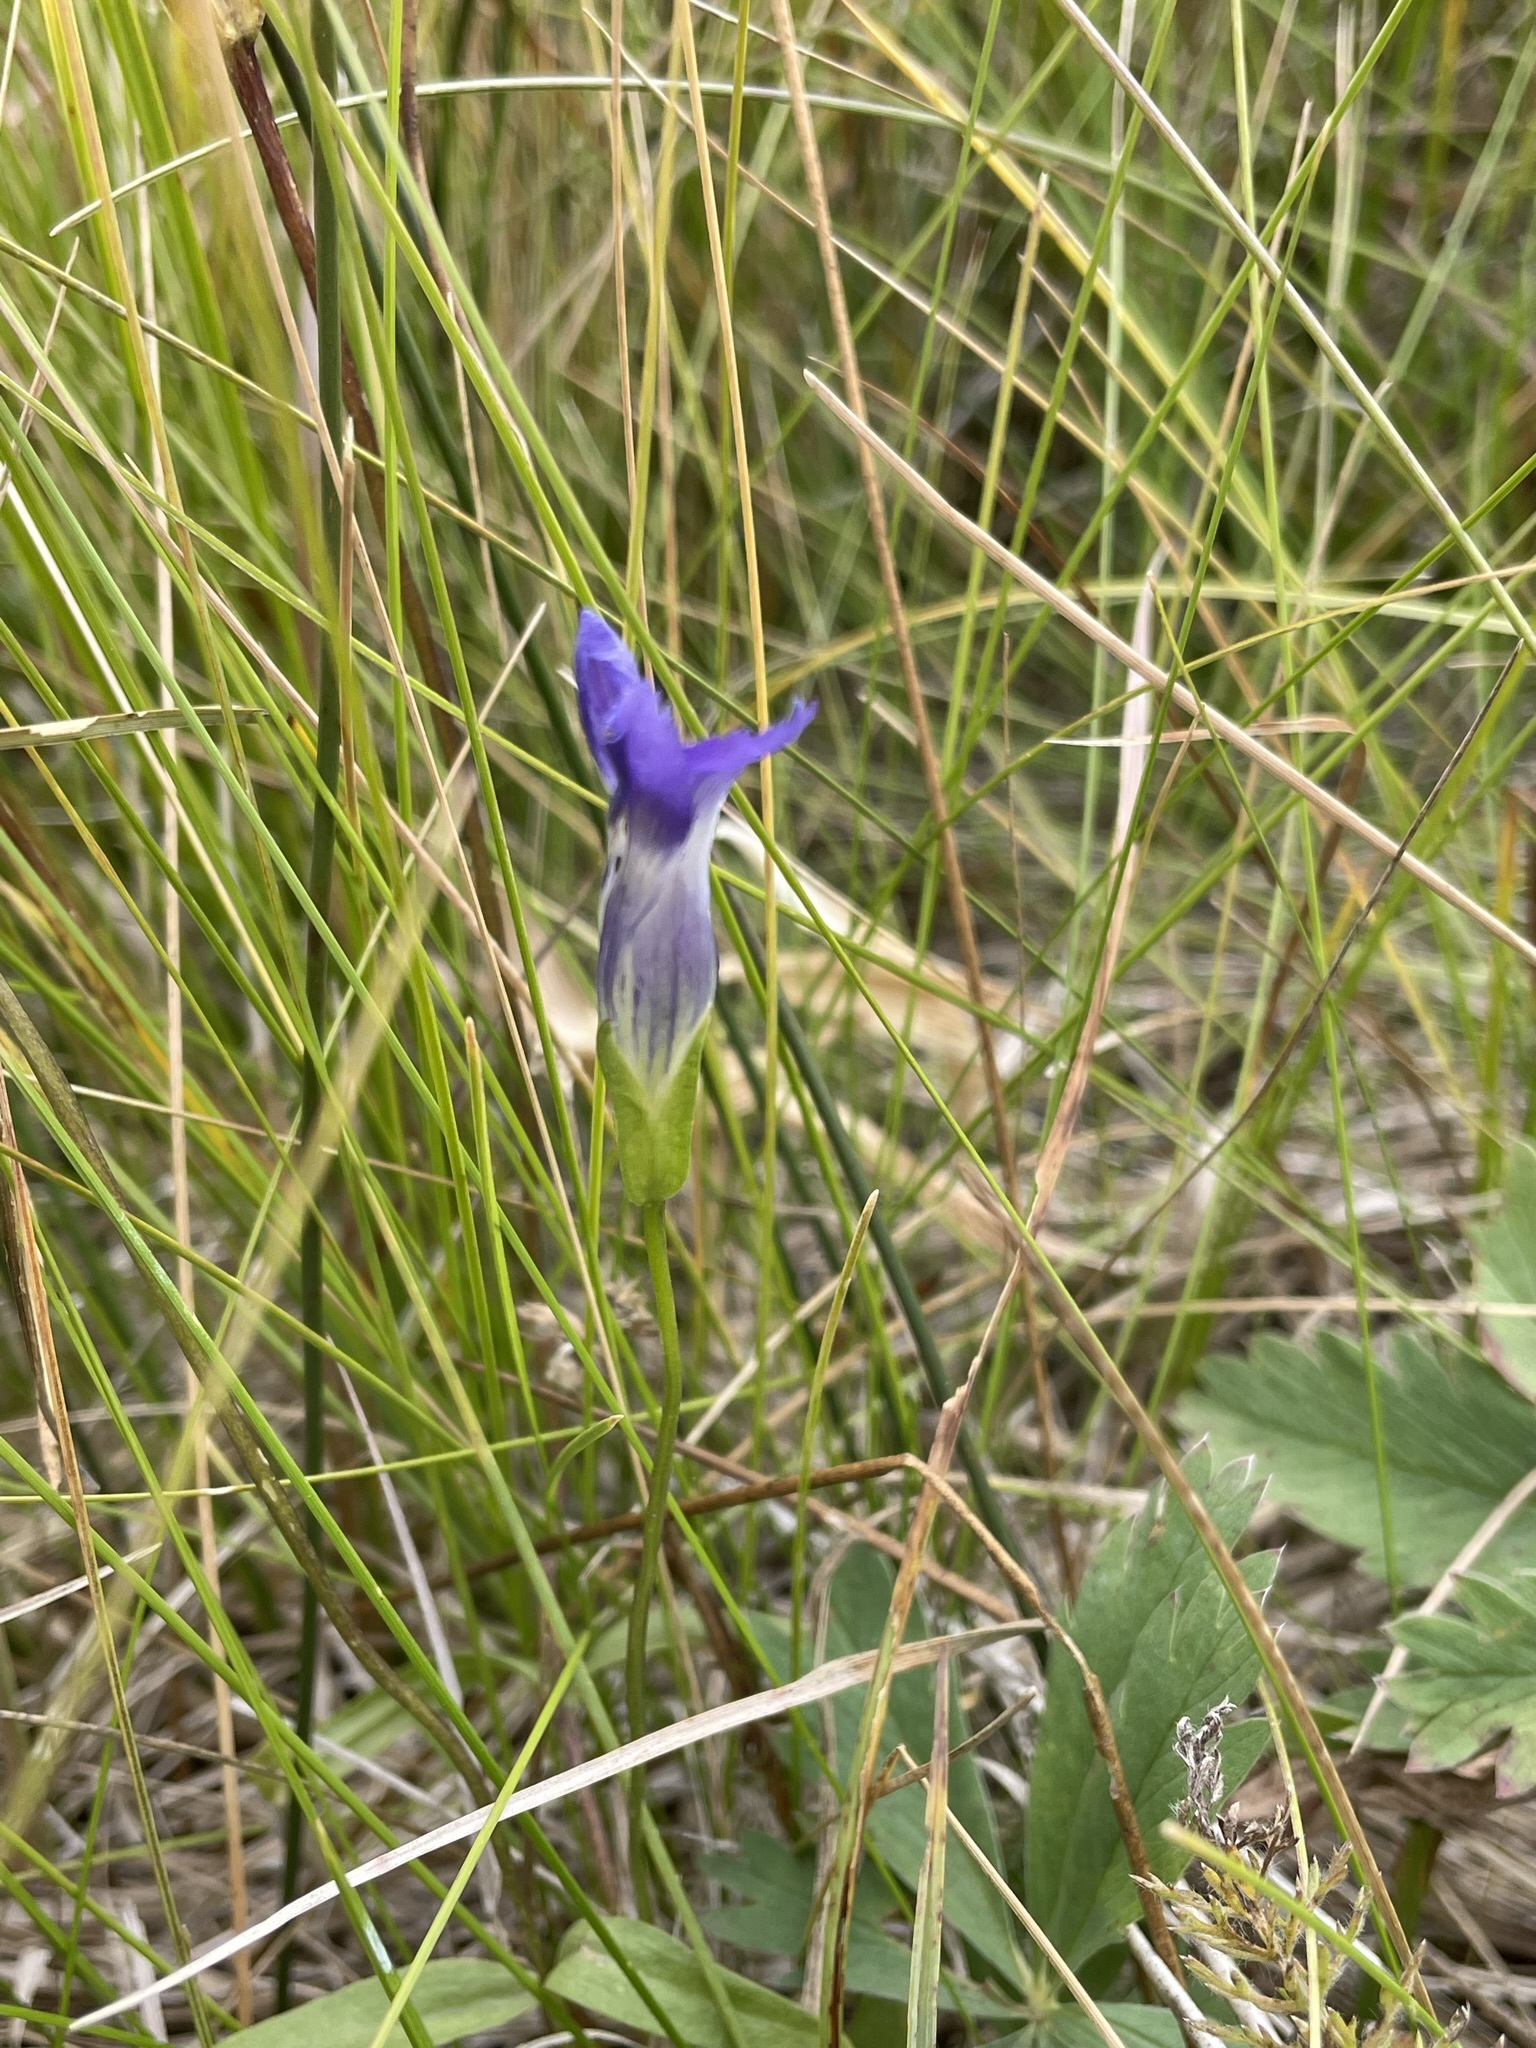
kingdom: Plantae
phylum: Tracheophyta
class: Magnoliopsida
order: Gentianales
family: Gentianaceae
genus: Gentianopsis
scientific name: Gentianopsis thermalis
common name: Rocky mountain fringed-gentian
